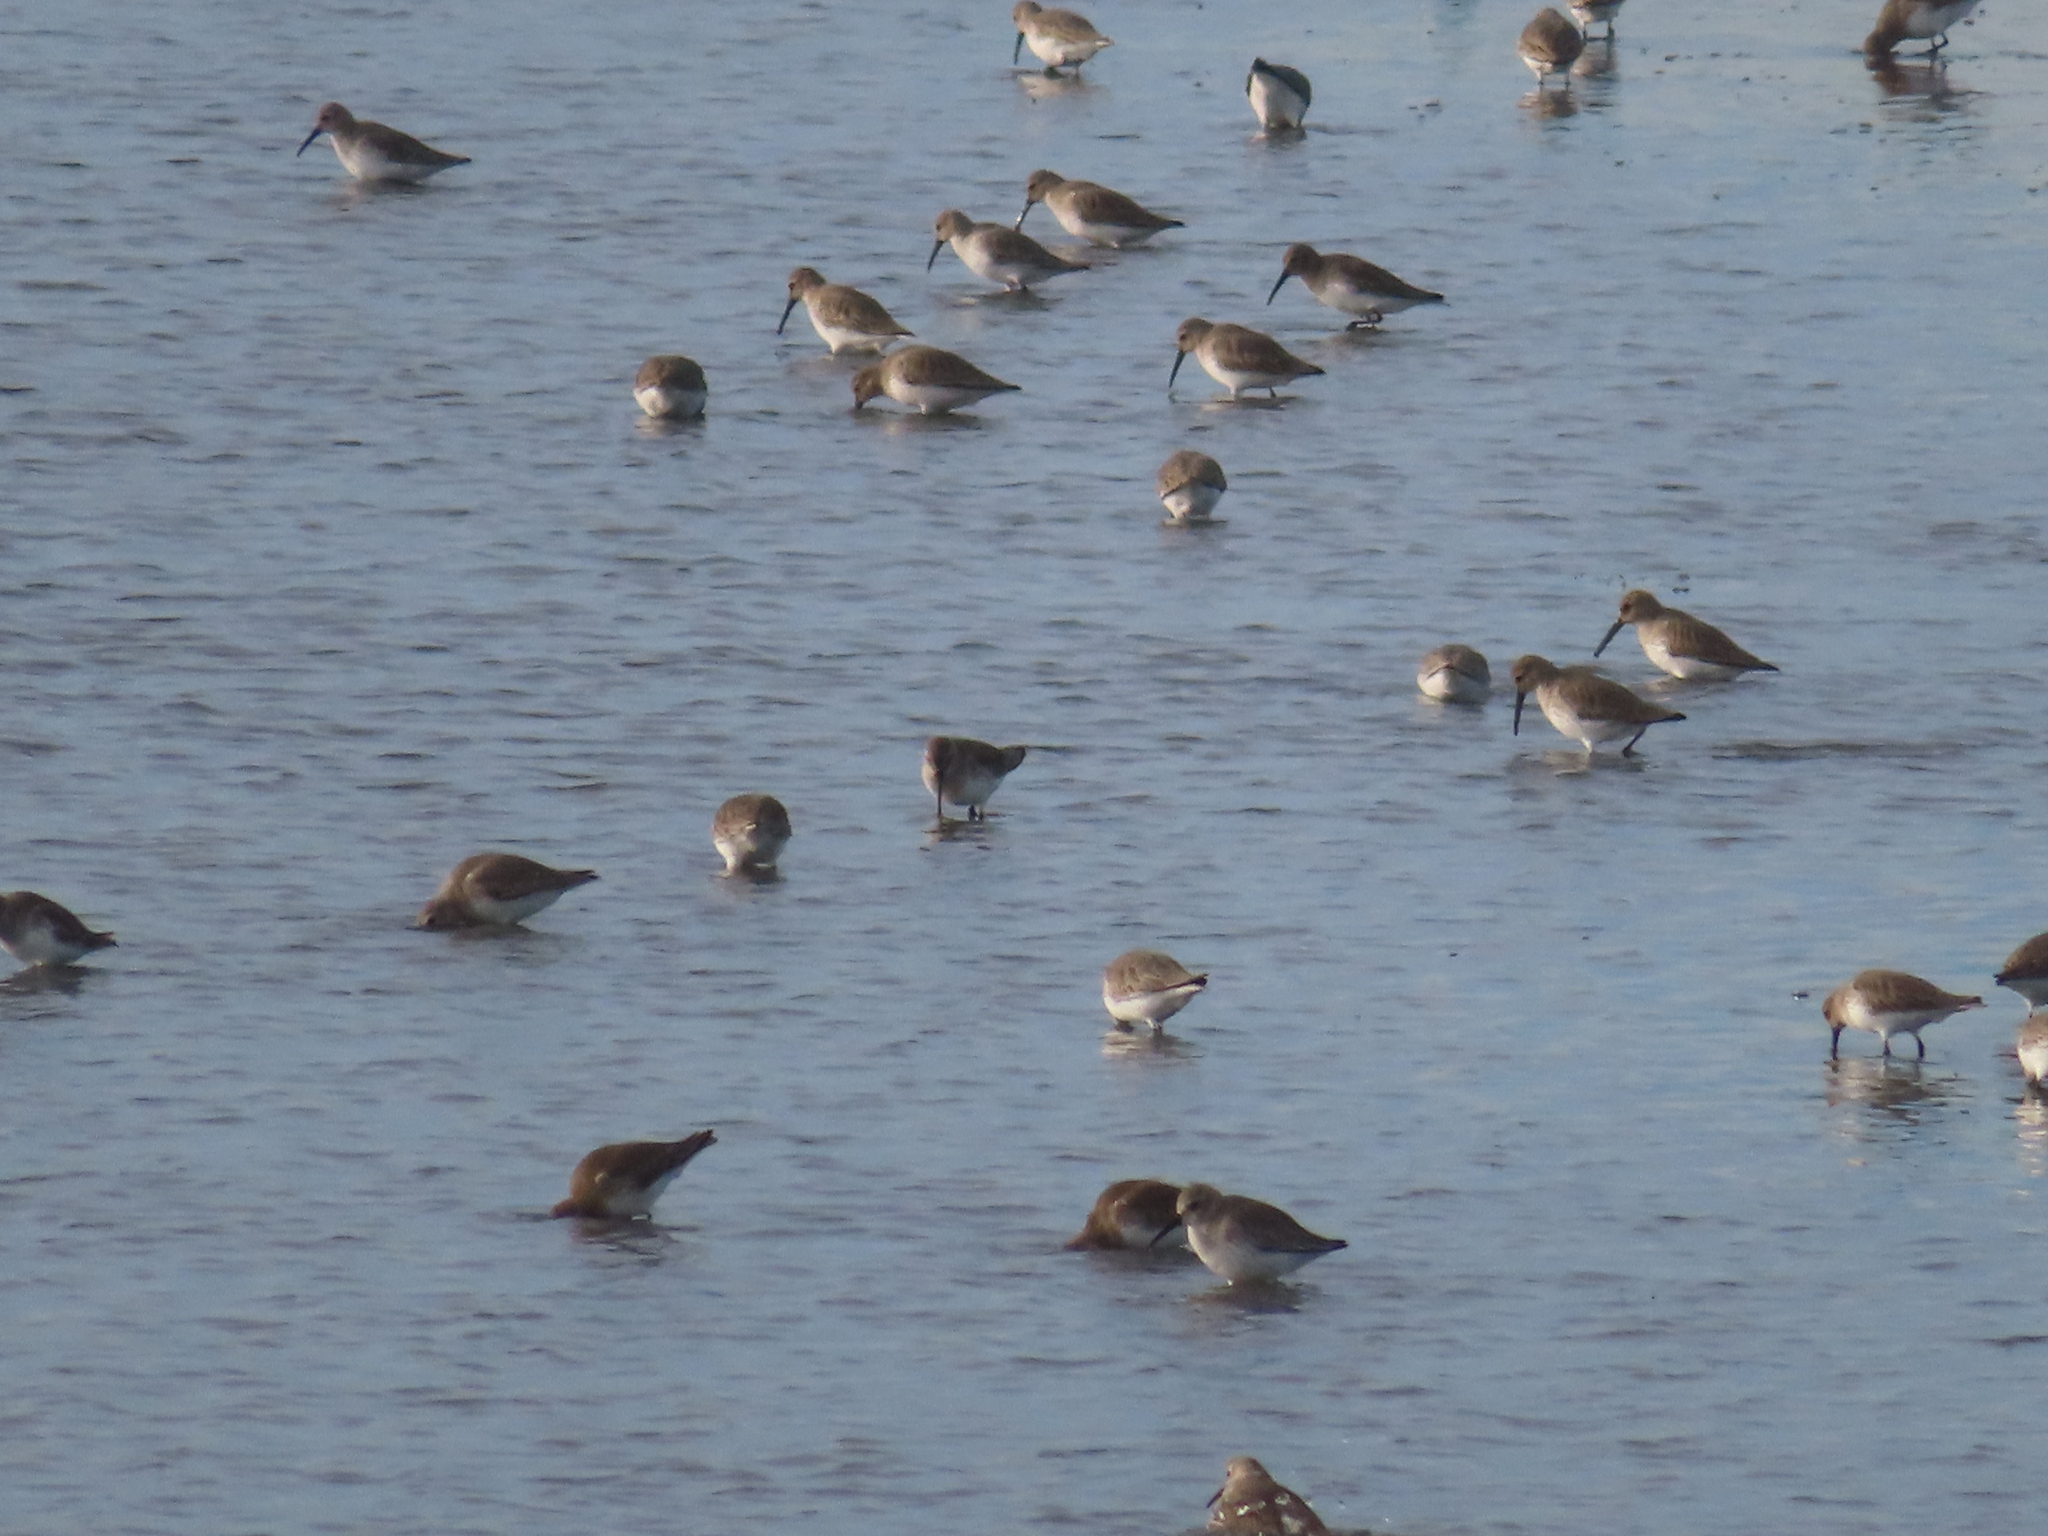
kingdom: Animalia
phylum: Chordata
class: Aves
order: Charadriiformes
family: Scolopacidae
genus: Calidris
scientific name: Calidris alpina
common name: Dunlin
